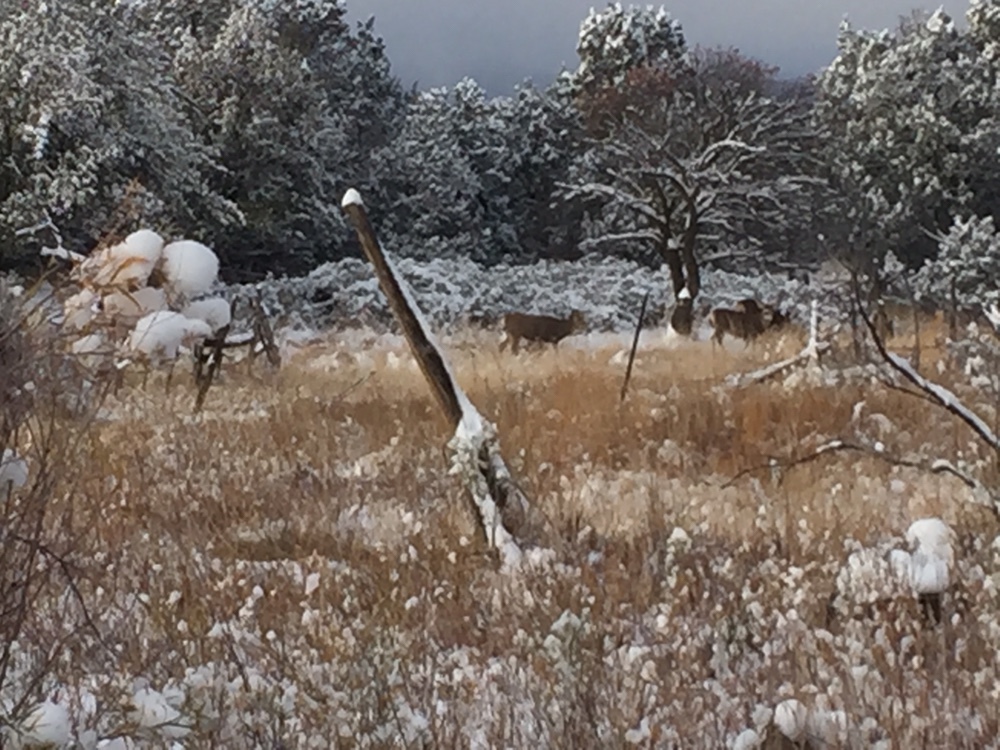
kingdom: Animalia
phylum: Chordata
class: Mammalia
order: Artiodactyla
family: Cervidae
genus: Odocoileus
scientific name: Odocoileus hemionus
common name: Mule deer
